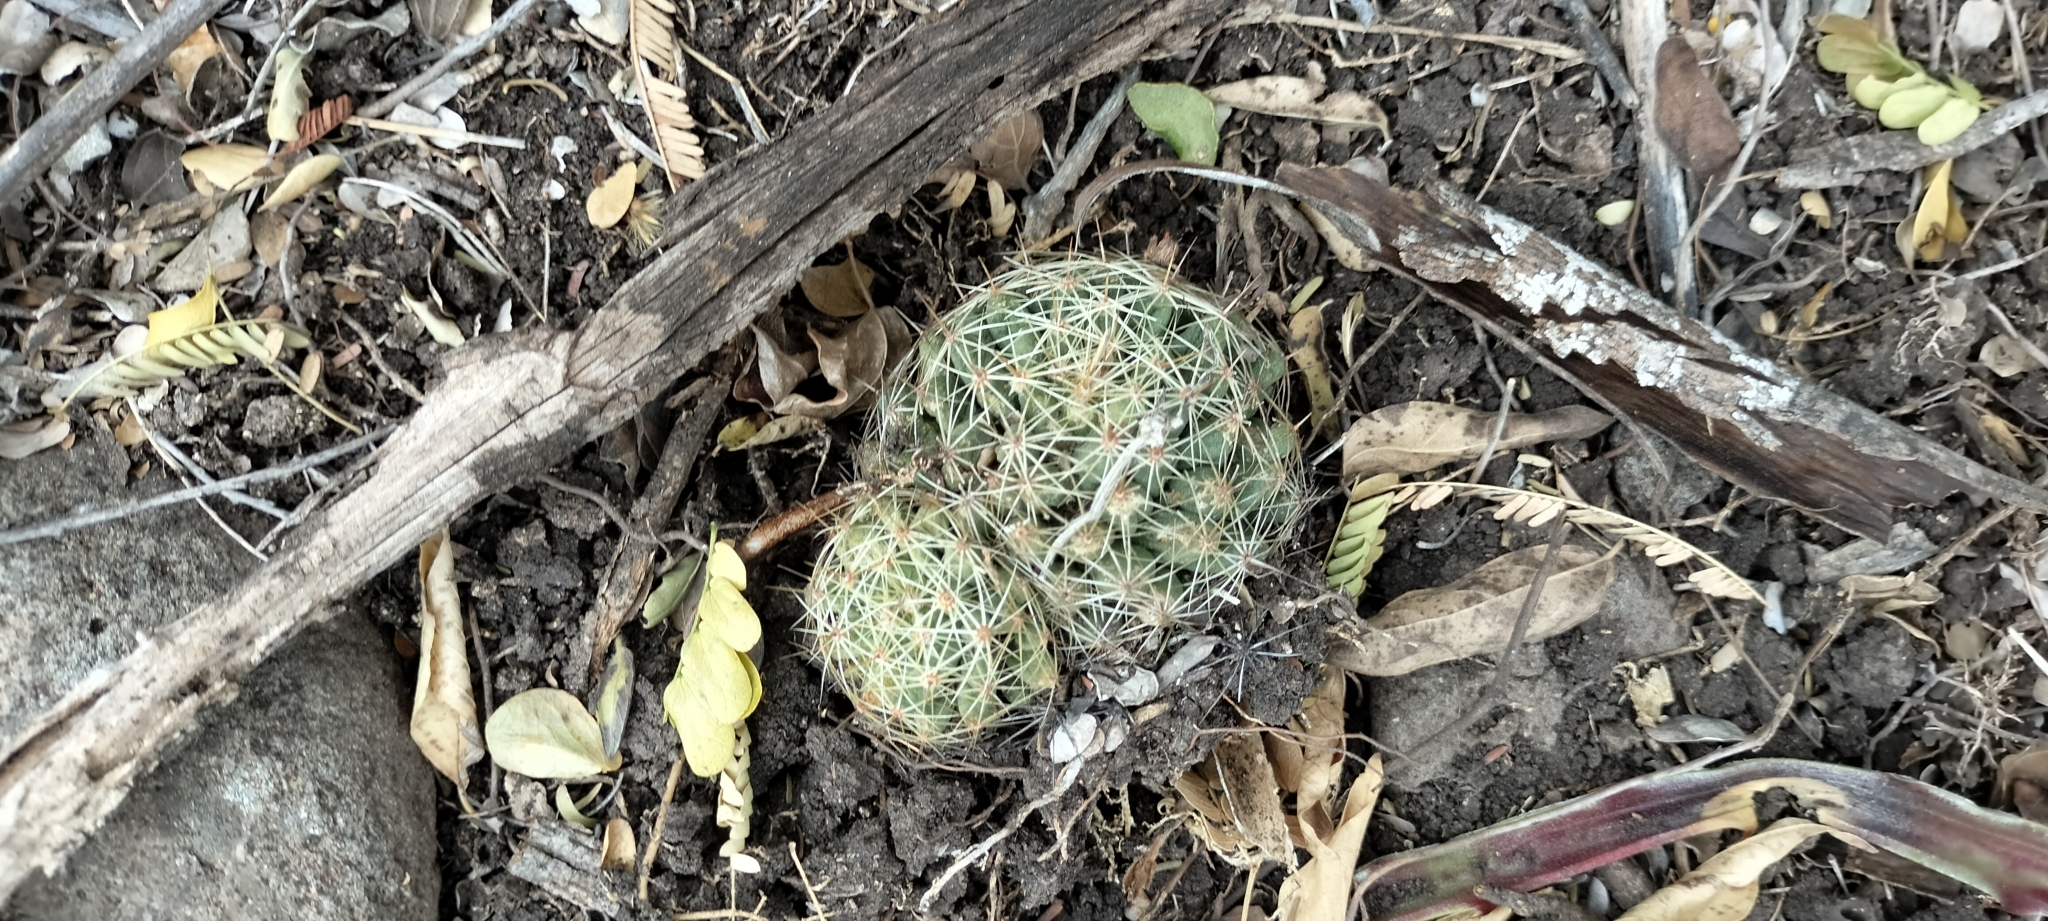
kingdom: Plantae
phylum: Tracheophyta
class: Magnoliopsida
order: Caryophyllales
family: Cactaceae
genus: Mammillaria
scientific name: Mammillaria sphaerica
